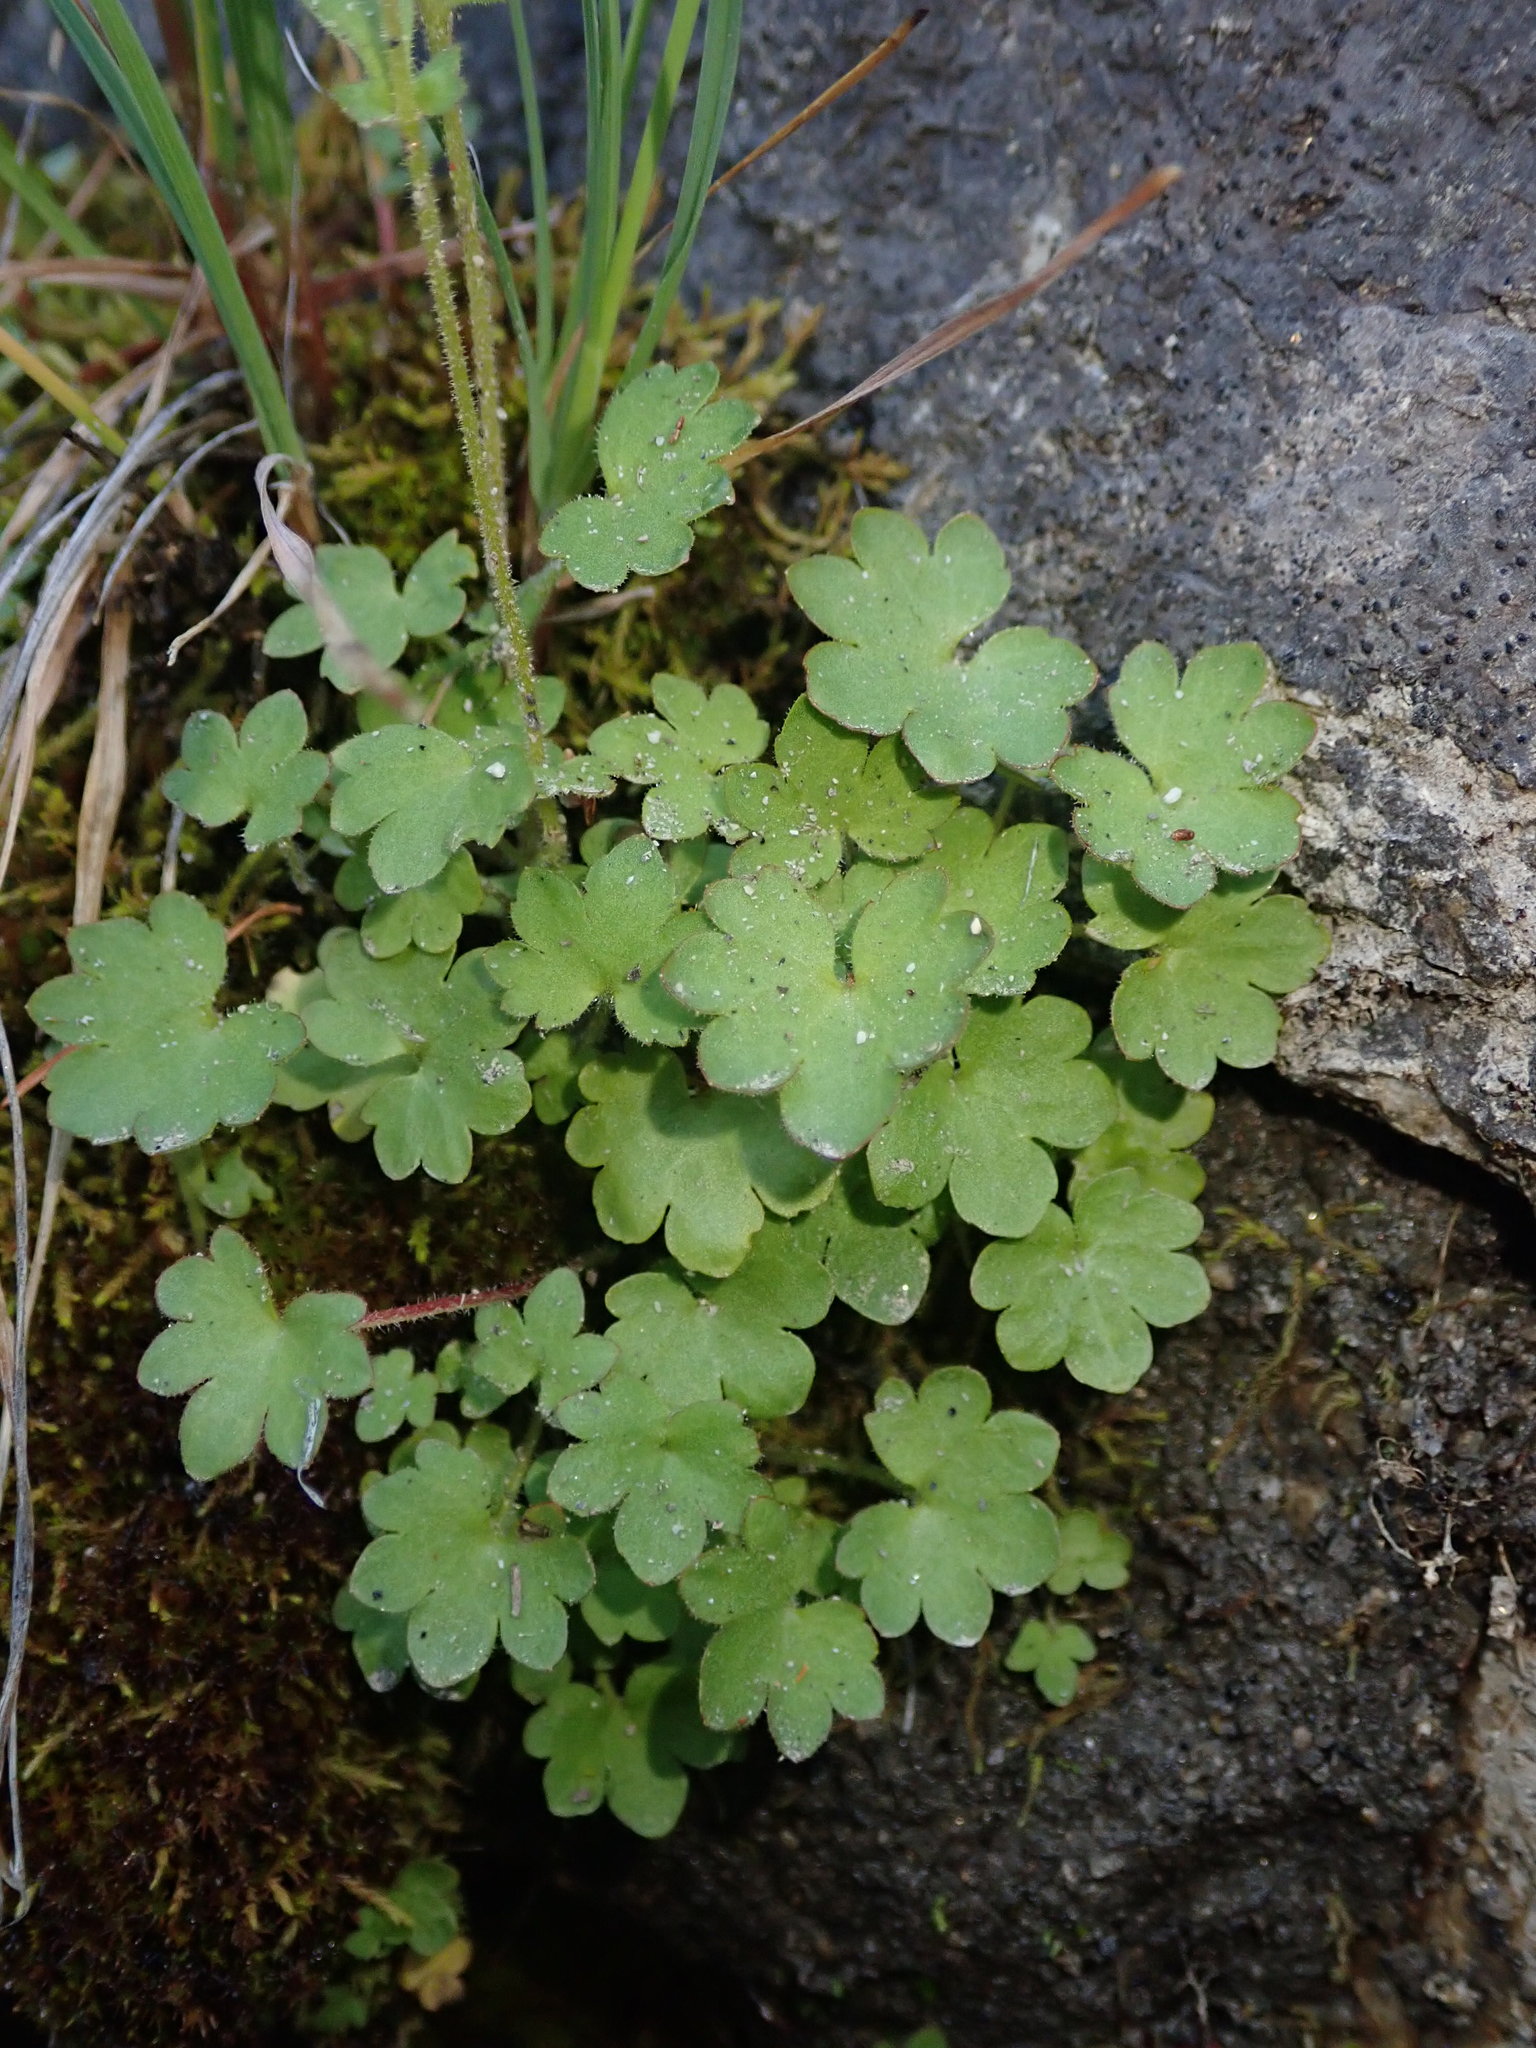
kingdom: Plantae
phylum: Tracheophyta
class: Magnoliopsida
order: Saxifragales
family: Saxifragaceae
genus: Suksdorfia
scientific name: Suksdorfia violacea
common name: Blue suksdorfia
